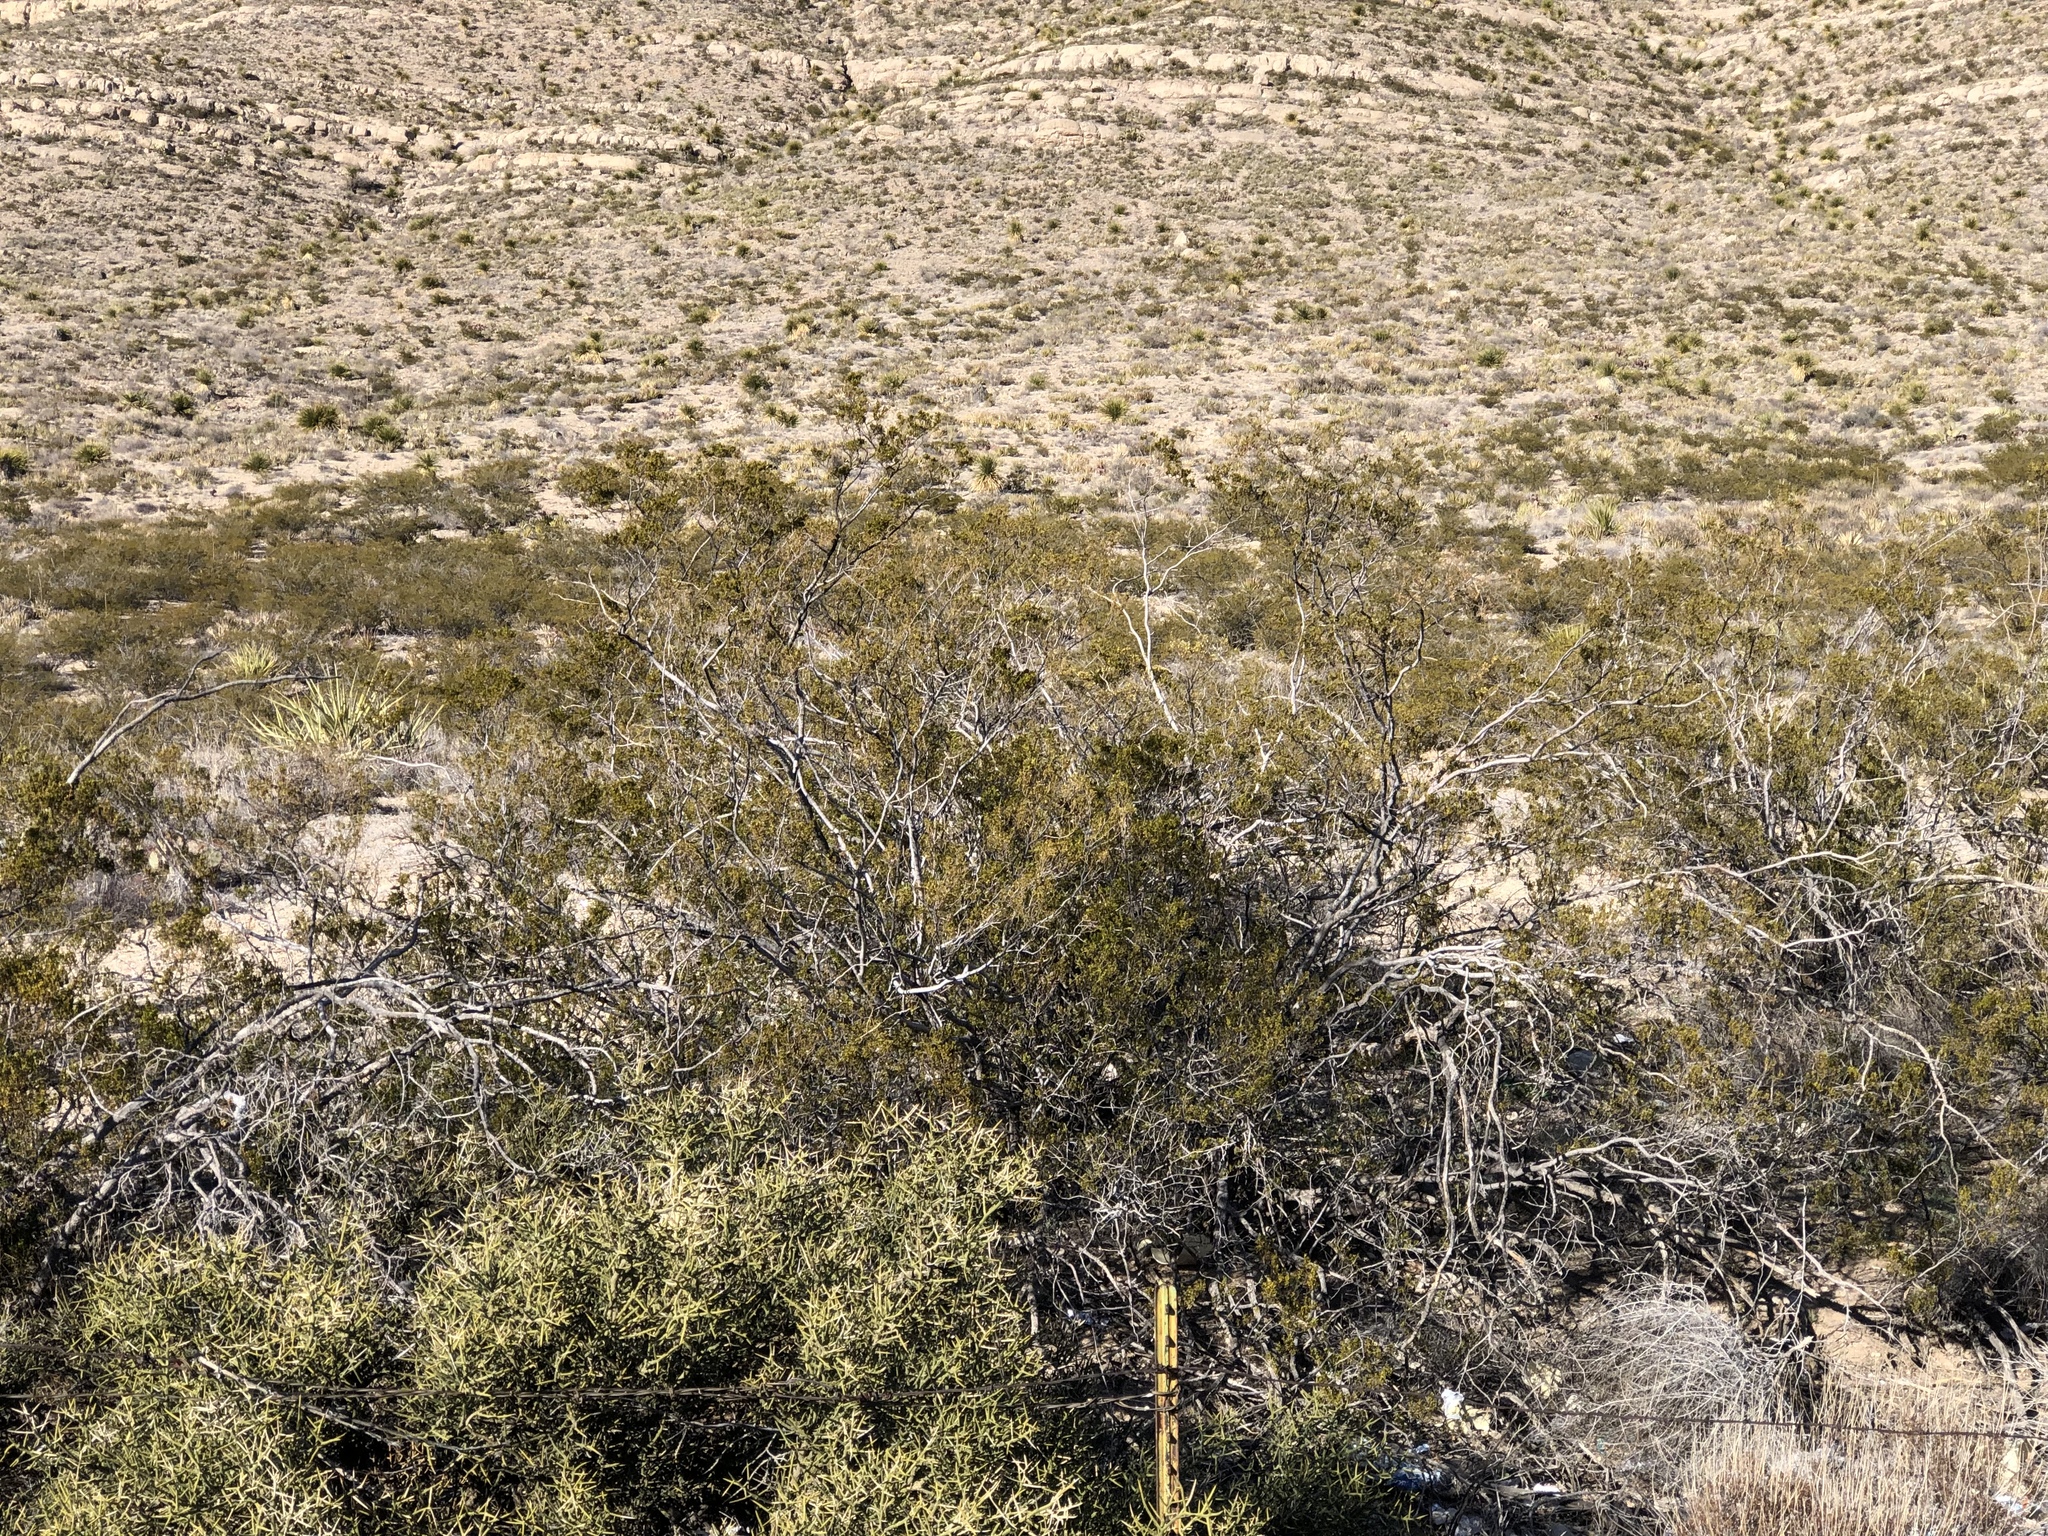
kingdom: Plantae
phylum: Tracheophyta
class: Magnoliopsida
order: Zygophyllales
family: Zygophyllaceae
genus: Larrea
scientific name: Larrea tridentata
